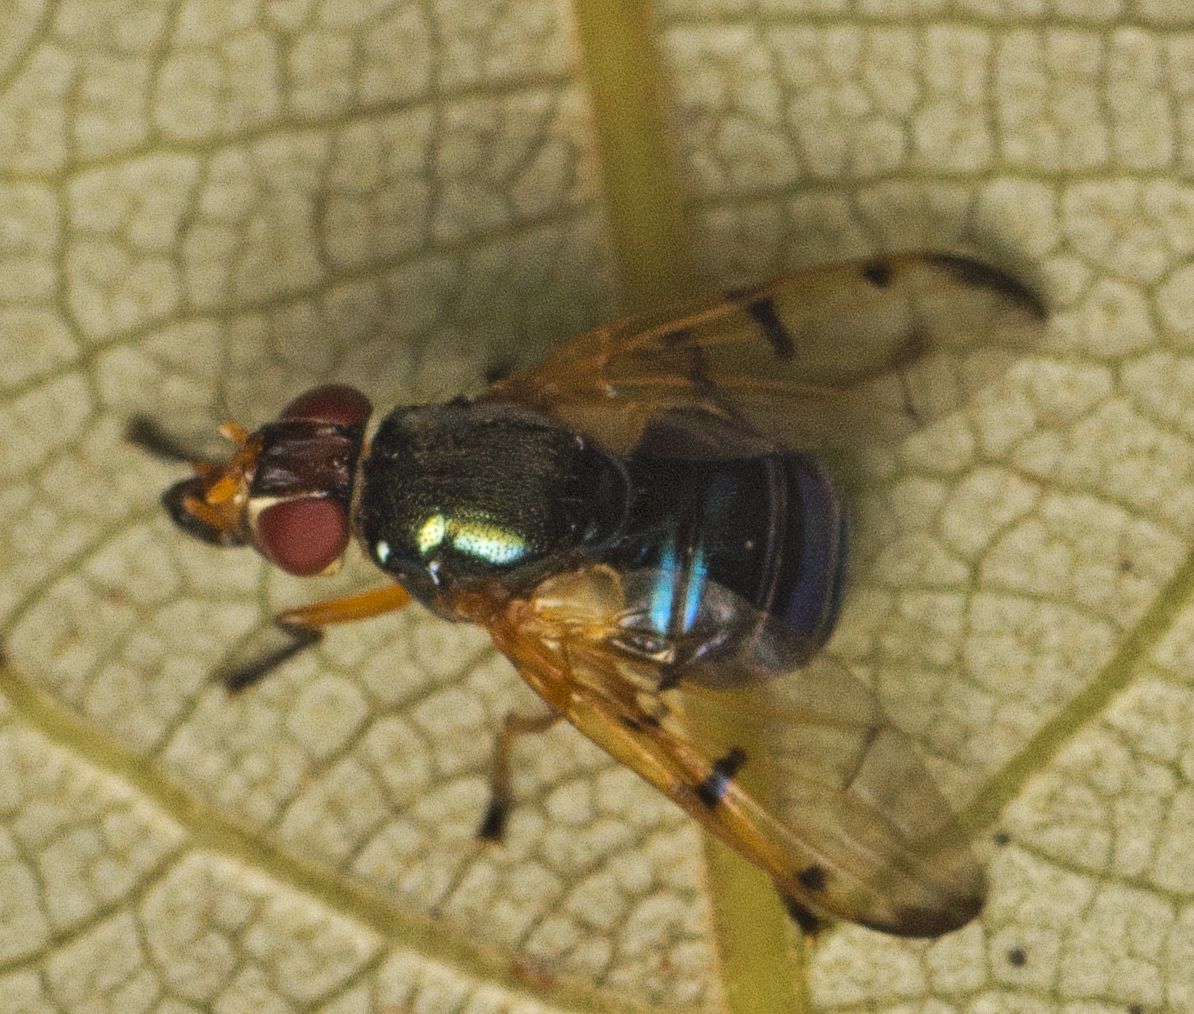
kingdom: Animalia
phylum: Arthropoda
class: Insecta
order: Diptera
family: Platystomatidae
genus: Lamprogaster
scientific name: Lamprogaster imperialis
